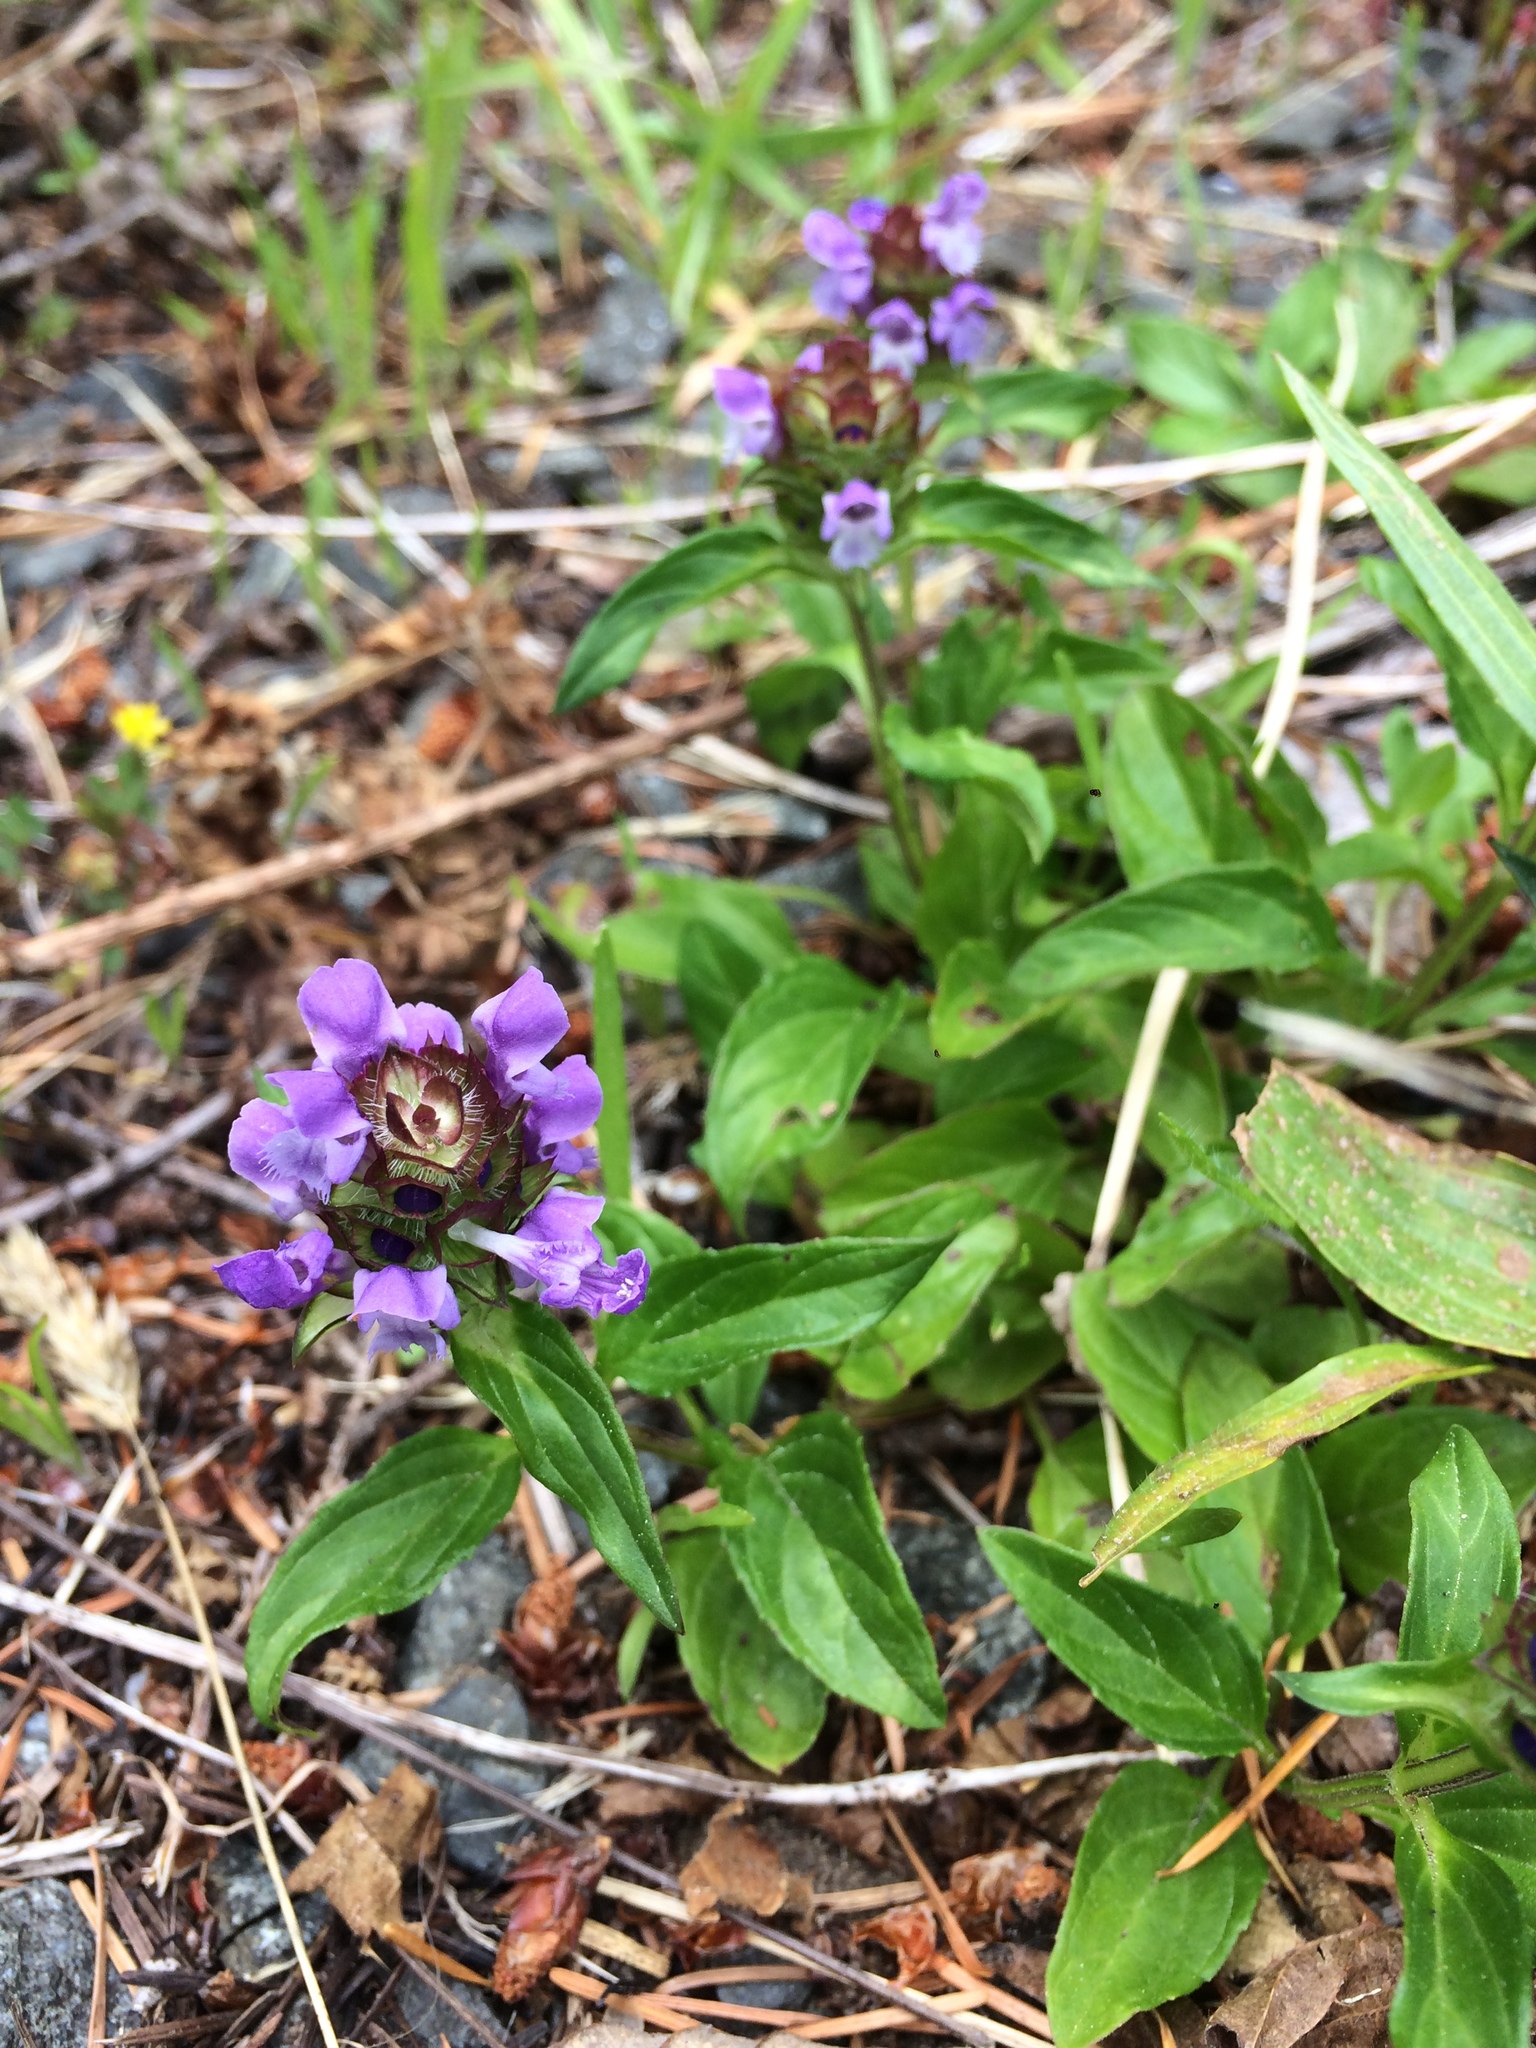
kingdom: Plantae
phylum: Tracheophyta
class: Magnoliopsida
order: Lamiales
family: Lamiaceae
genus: Prunella
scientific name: Prunella vulgaris
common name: Heal-all
